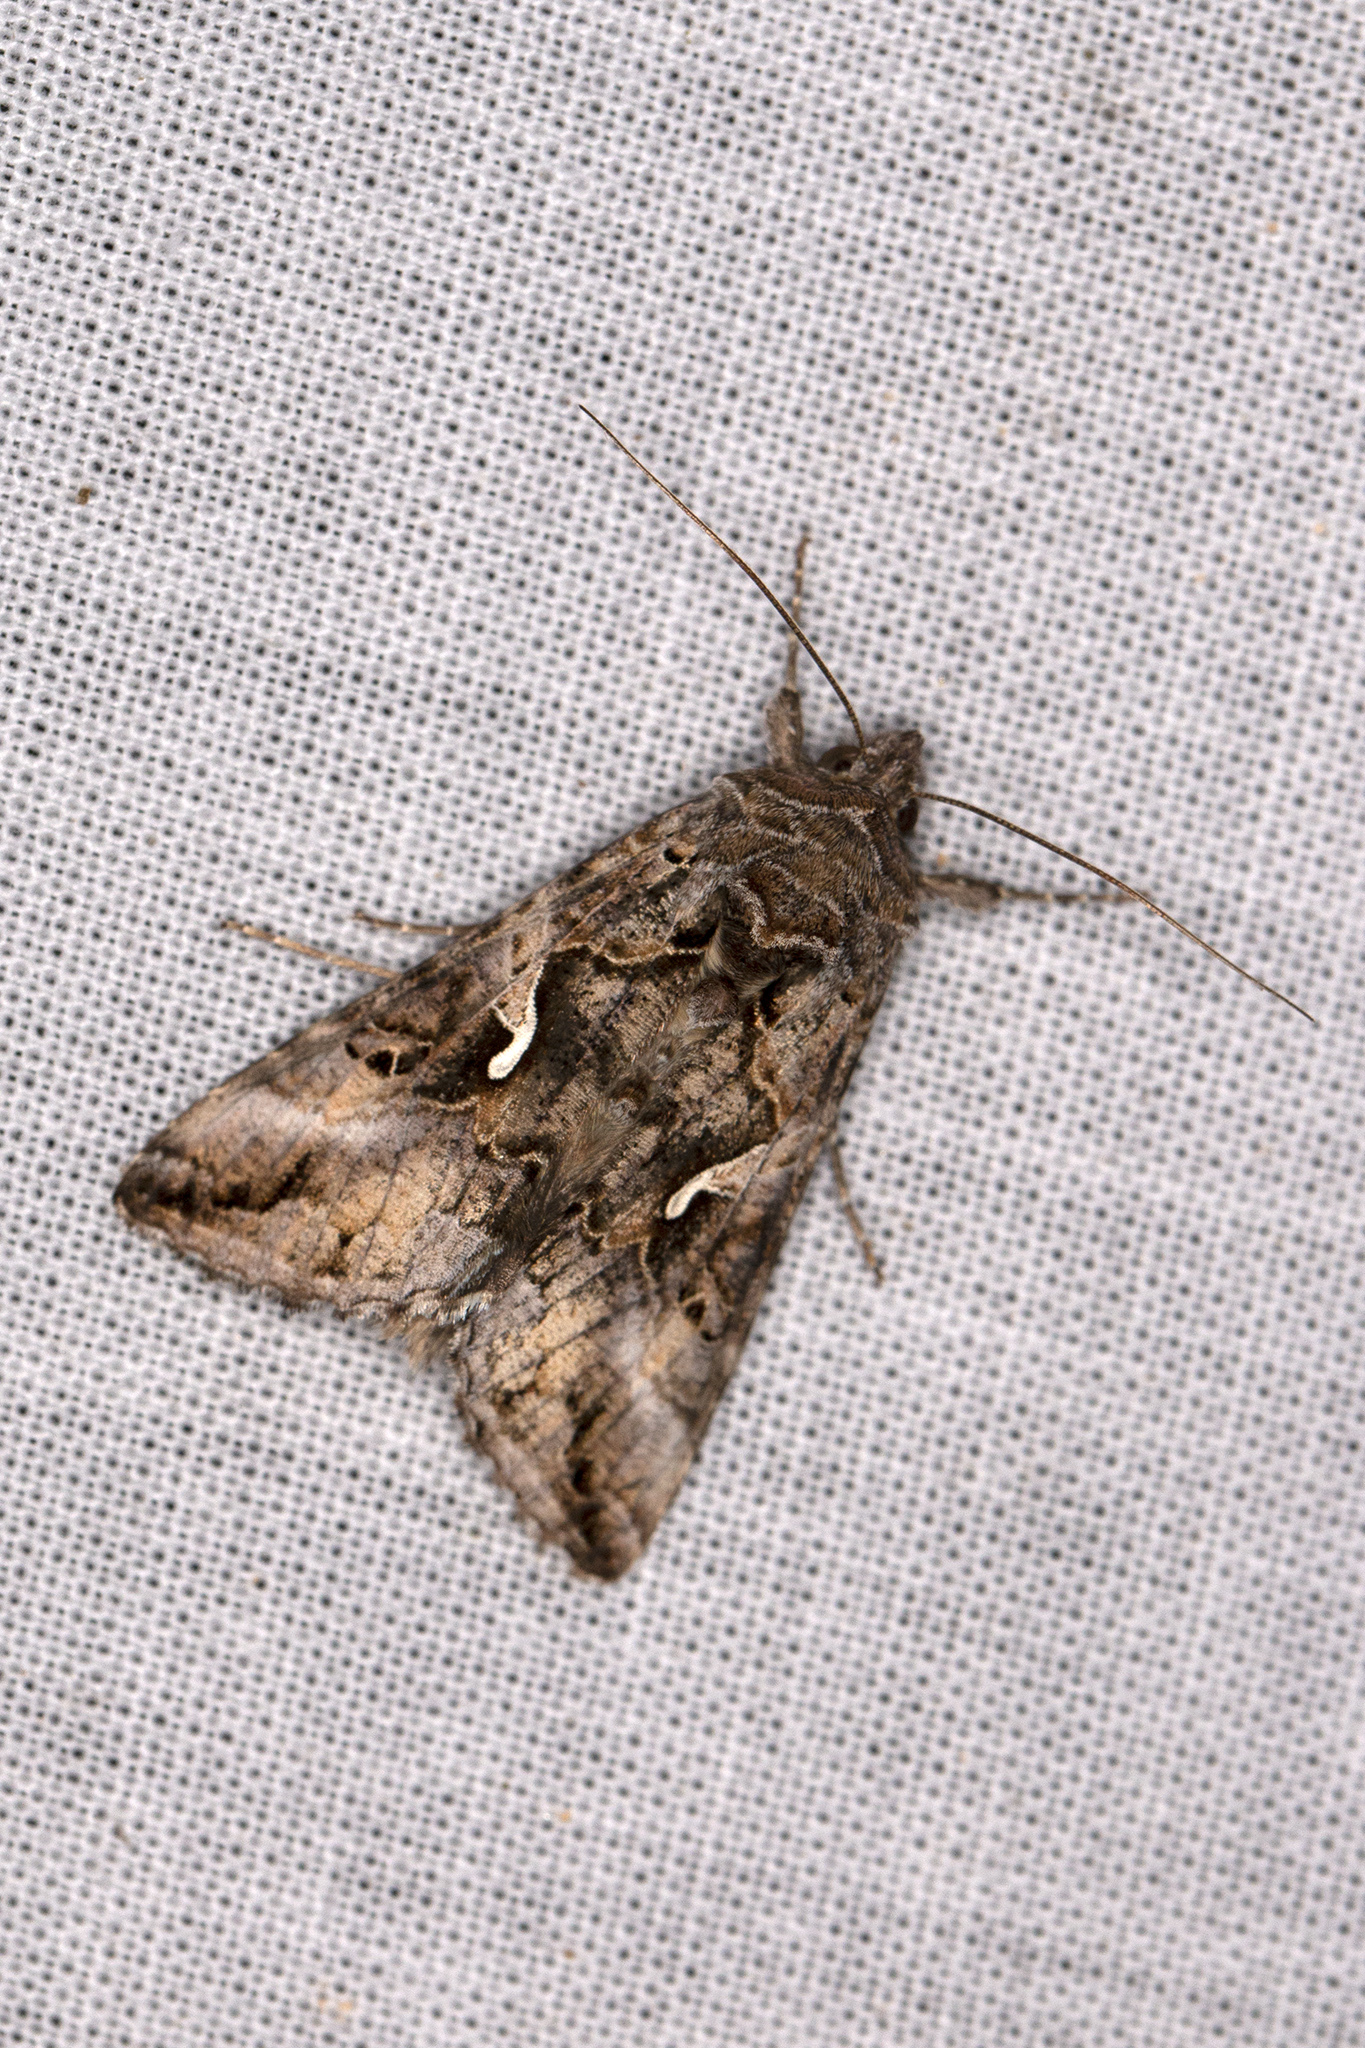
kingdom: Animalia
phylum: Arthropoda
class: Insecta
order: Lepidoptera
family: Noctuidae
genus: Autographa
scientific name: Autographa gamma
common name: Silver y
